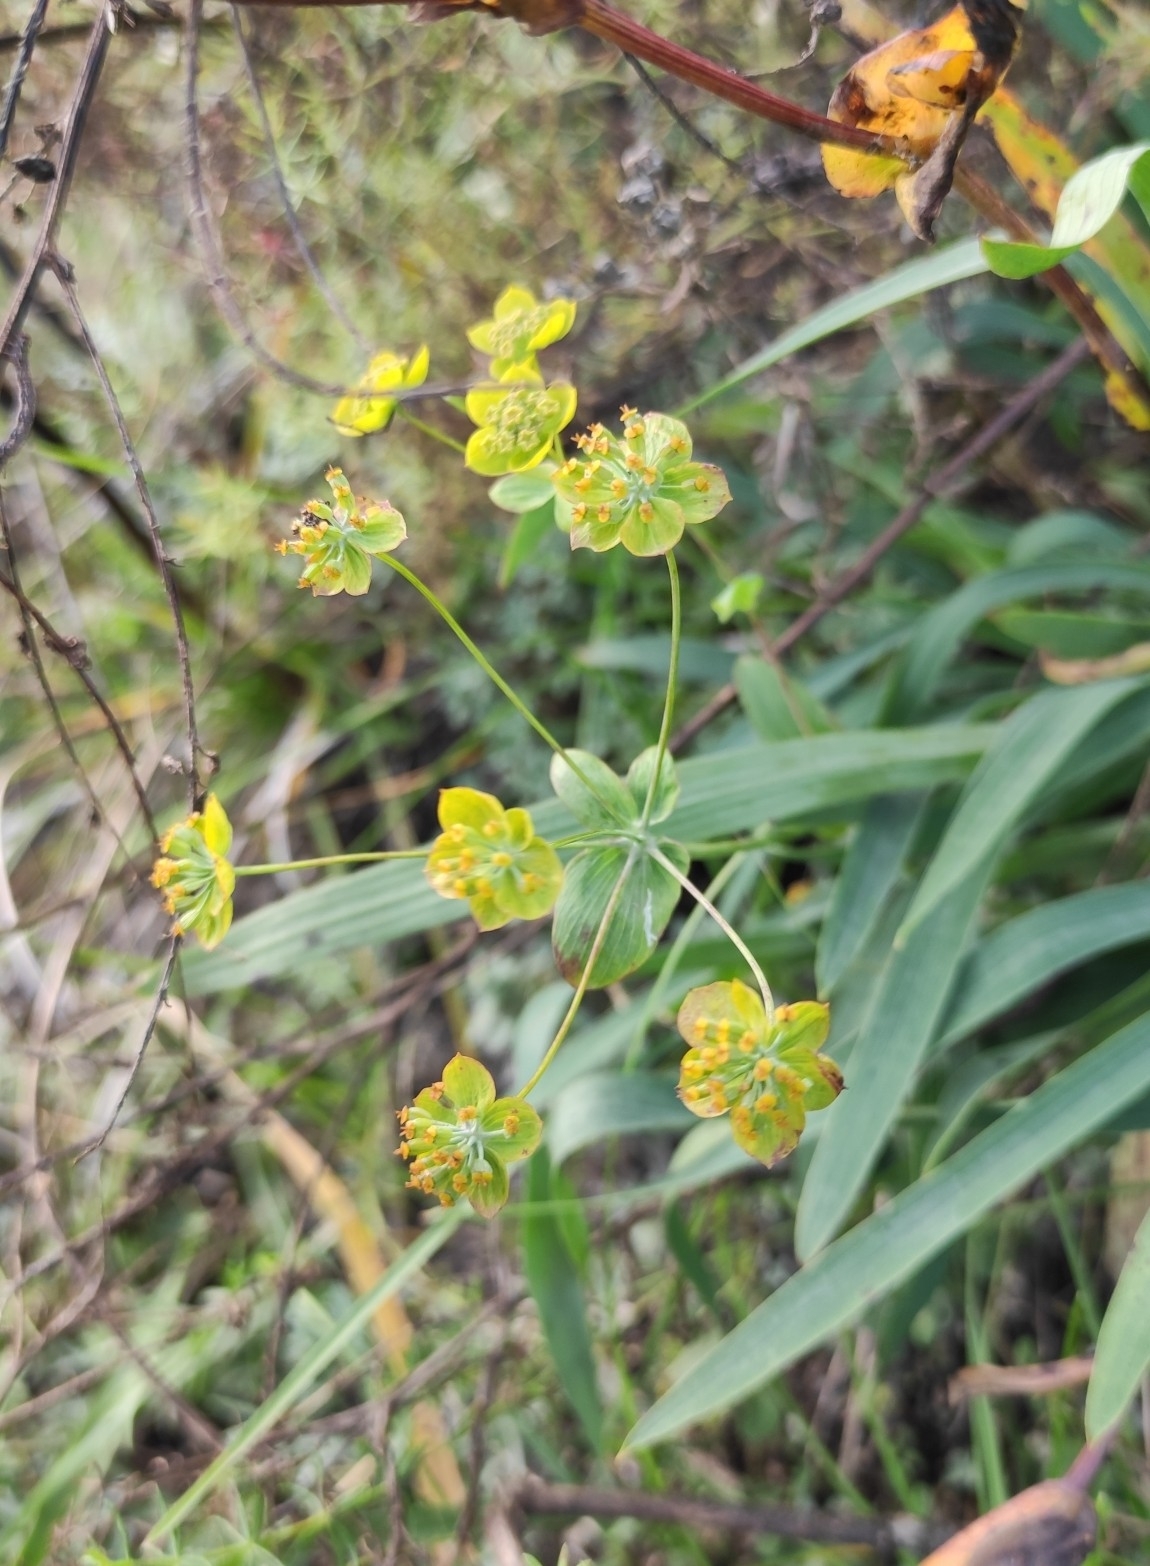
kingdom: Plantae
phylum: Tracheophyta
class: Magnoliopsida
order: Malpighiales
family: Euphorbiaceae
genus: Euphorbia
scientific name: Euphorbia virgata
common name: Leafy spurge
